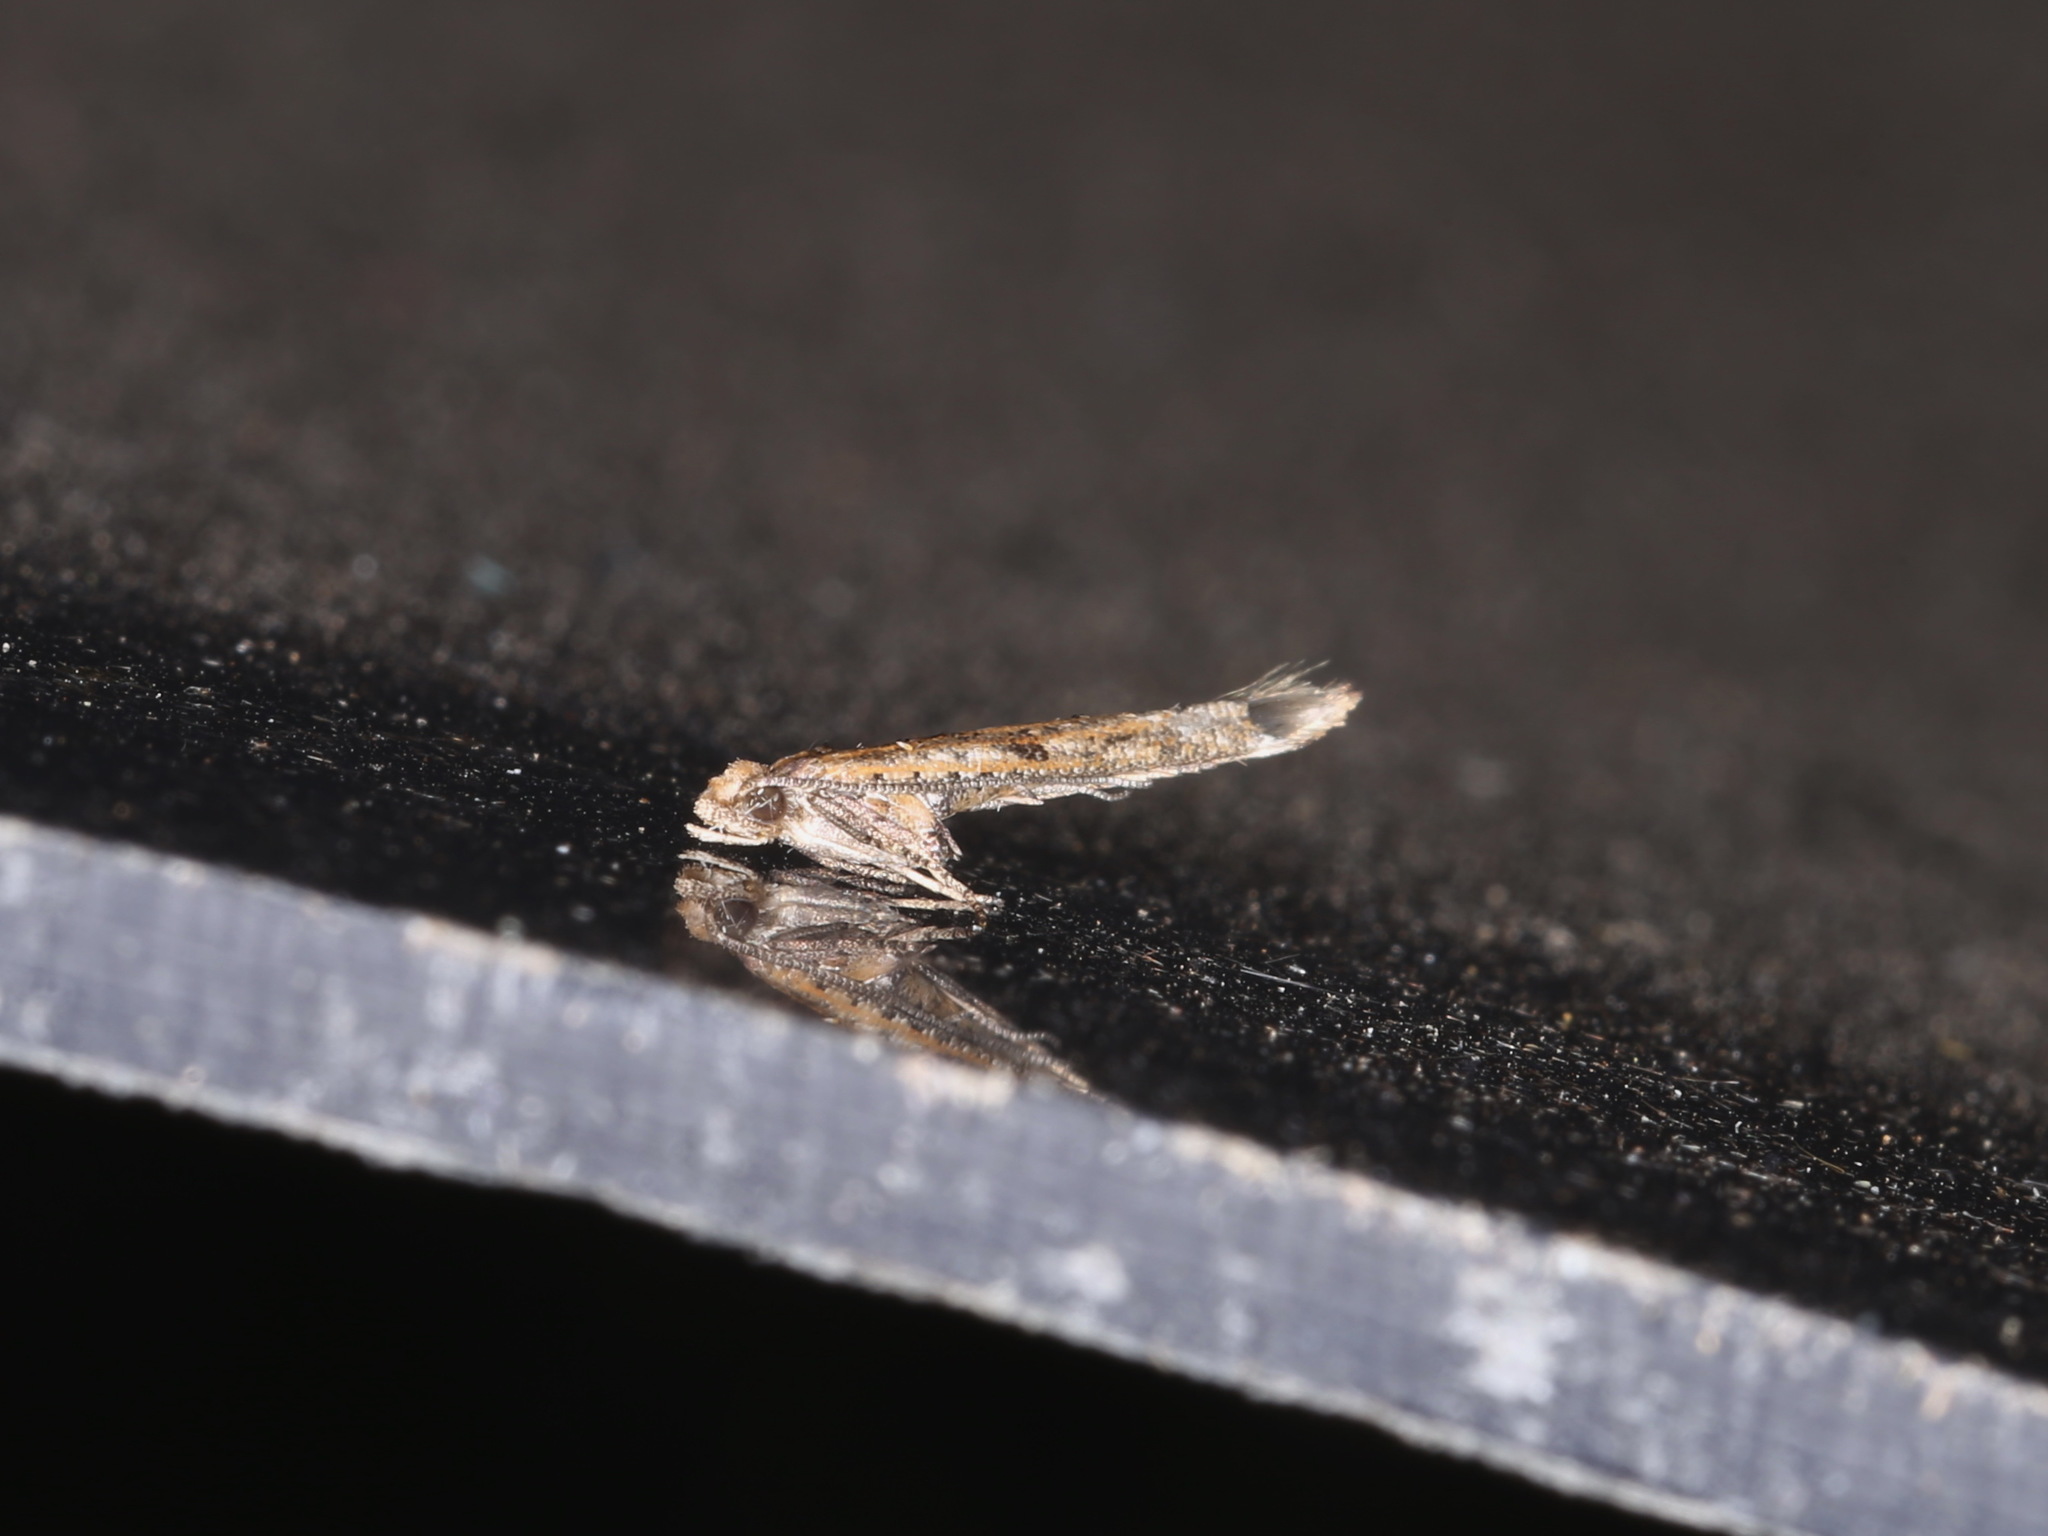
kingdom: Animalia
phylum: Arthropoda
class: Insecta
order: Lepidoptera
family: Yponomeutidae
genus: Zelleria
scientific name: Zelleria cynetica
